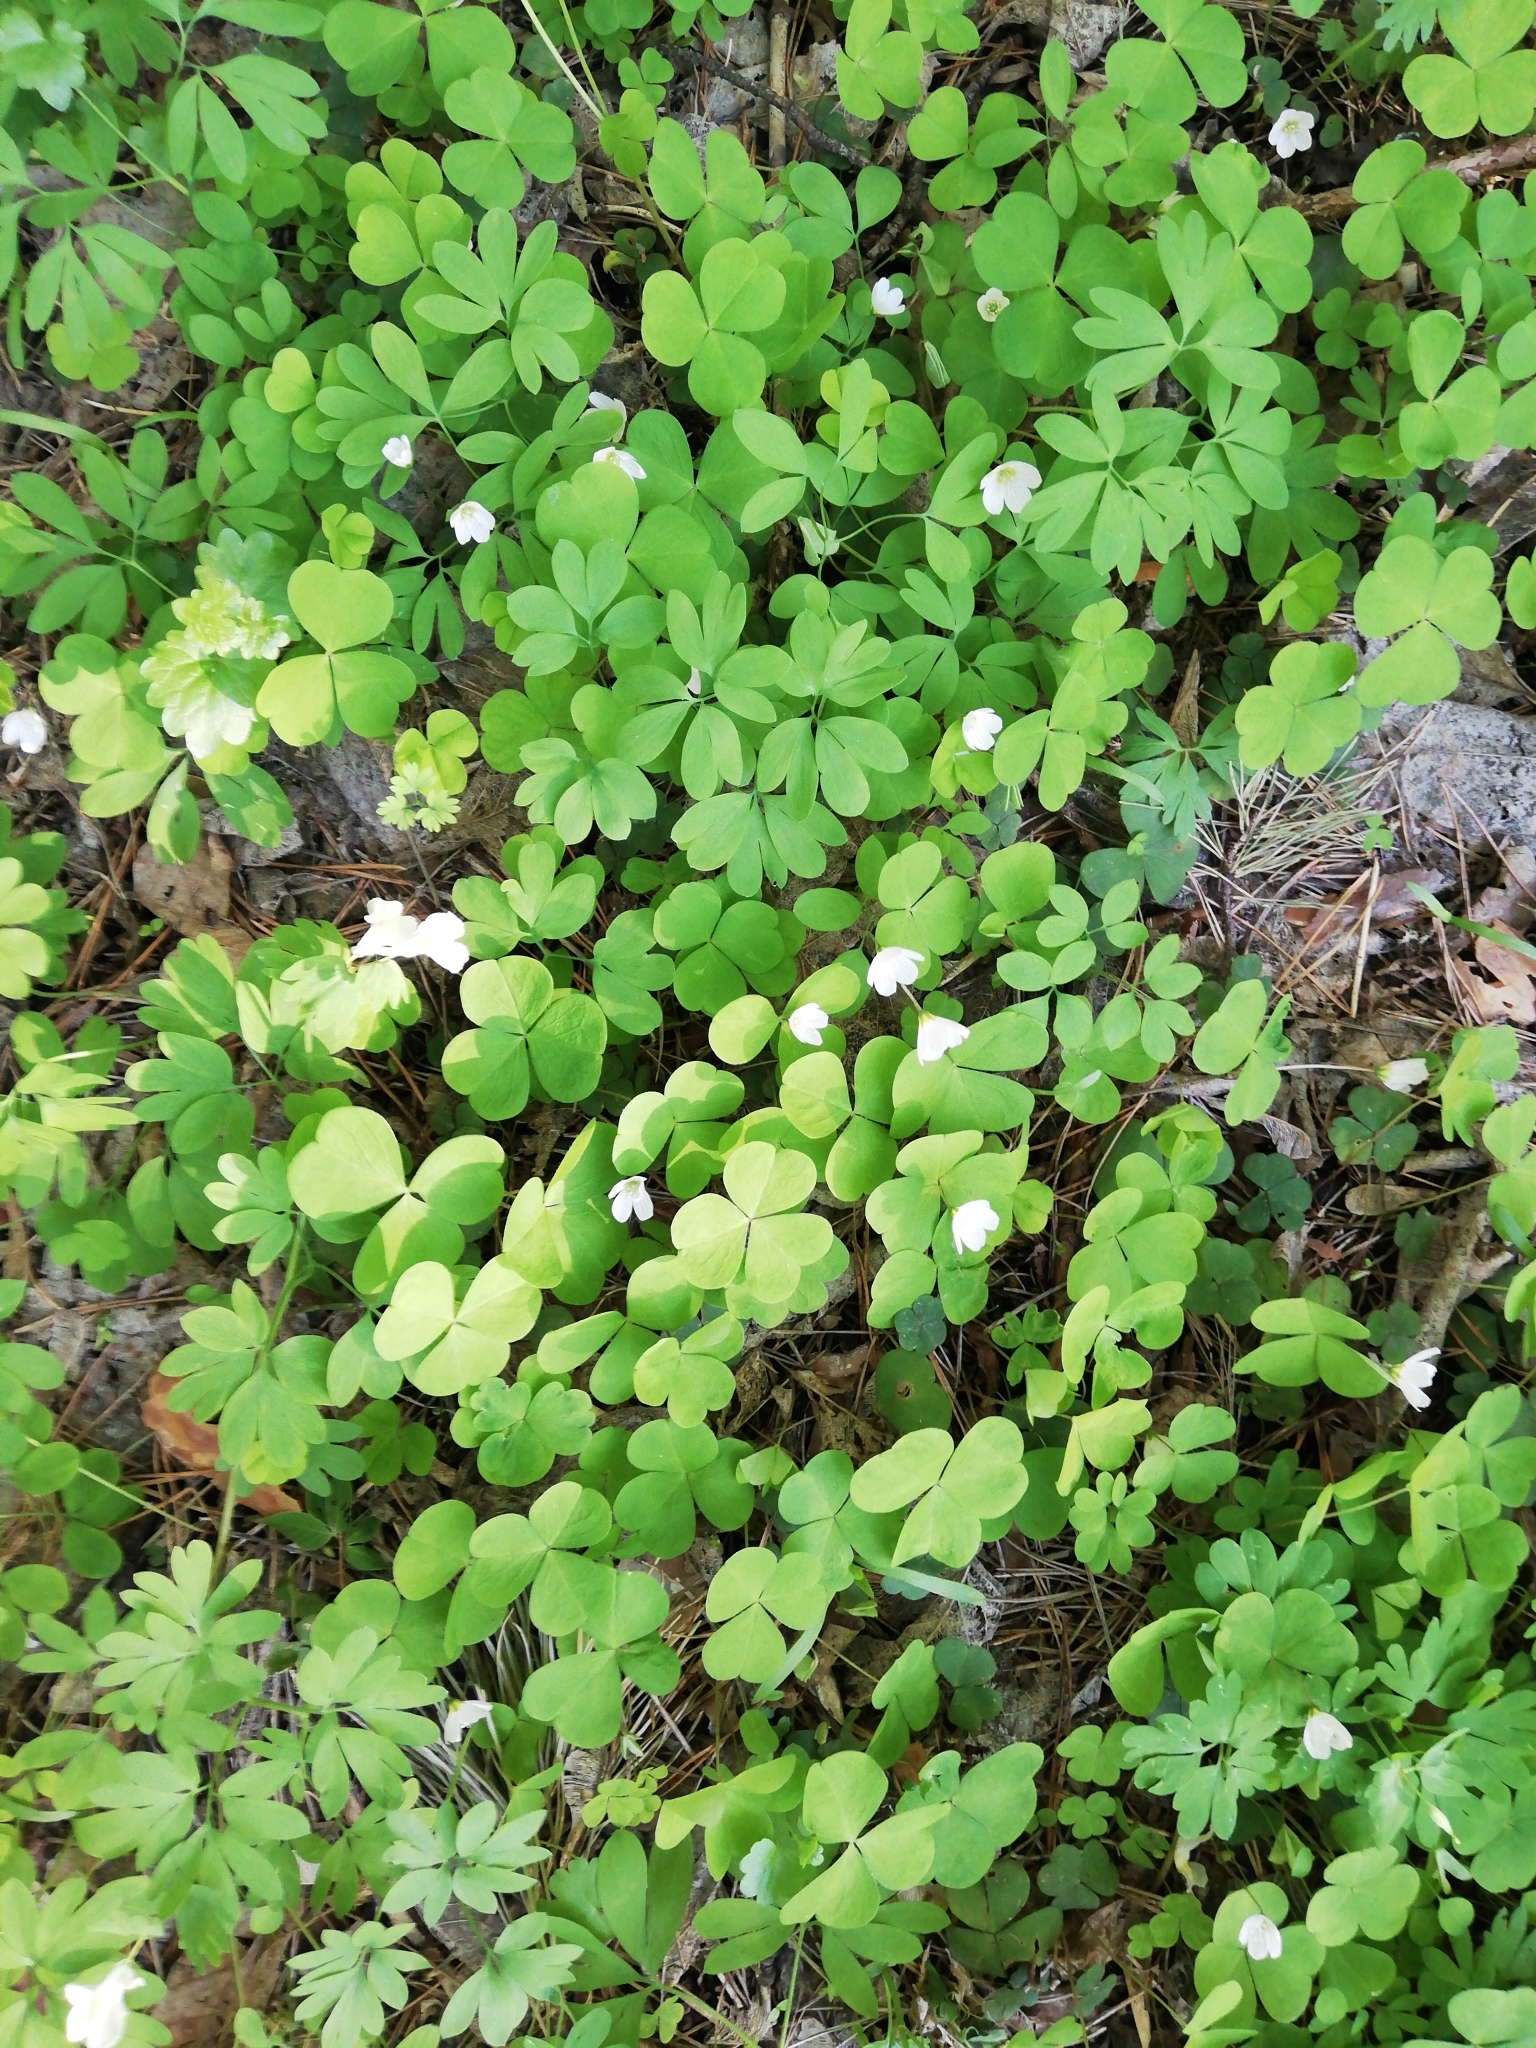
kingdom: Plantae
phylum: Tracheophyta
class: Magnoliopsida
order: Oxalidales
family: Oxalidaceae
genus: Oxalis
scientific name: Oxalis acetosella
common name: Wood-sorrel
